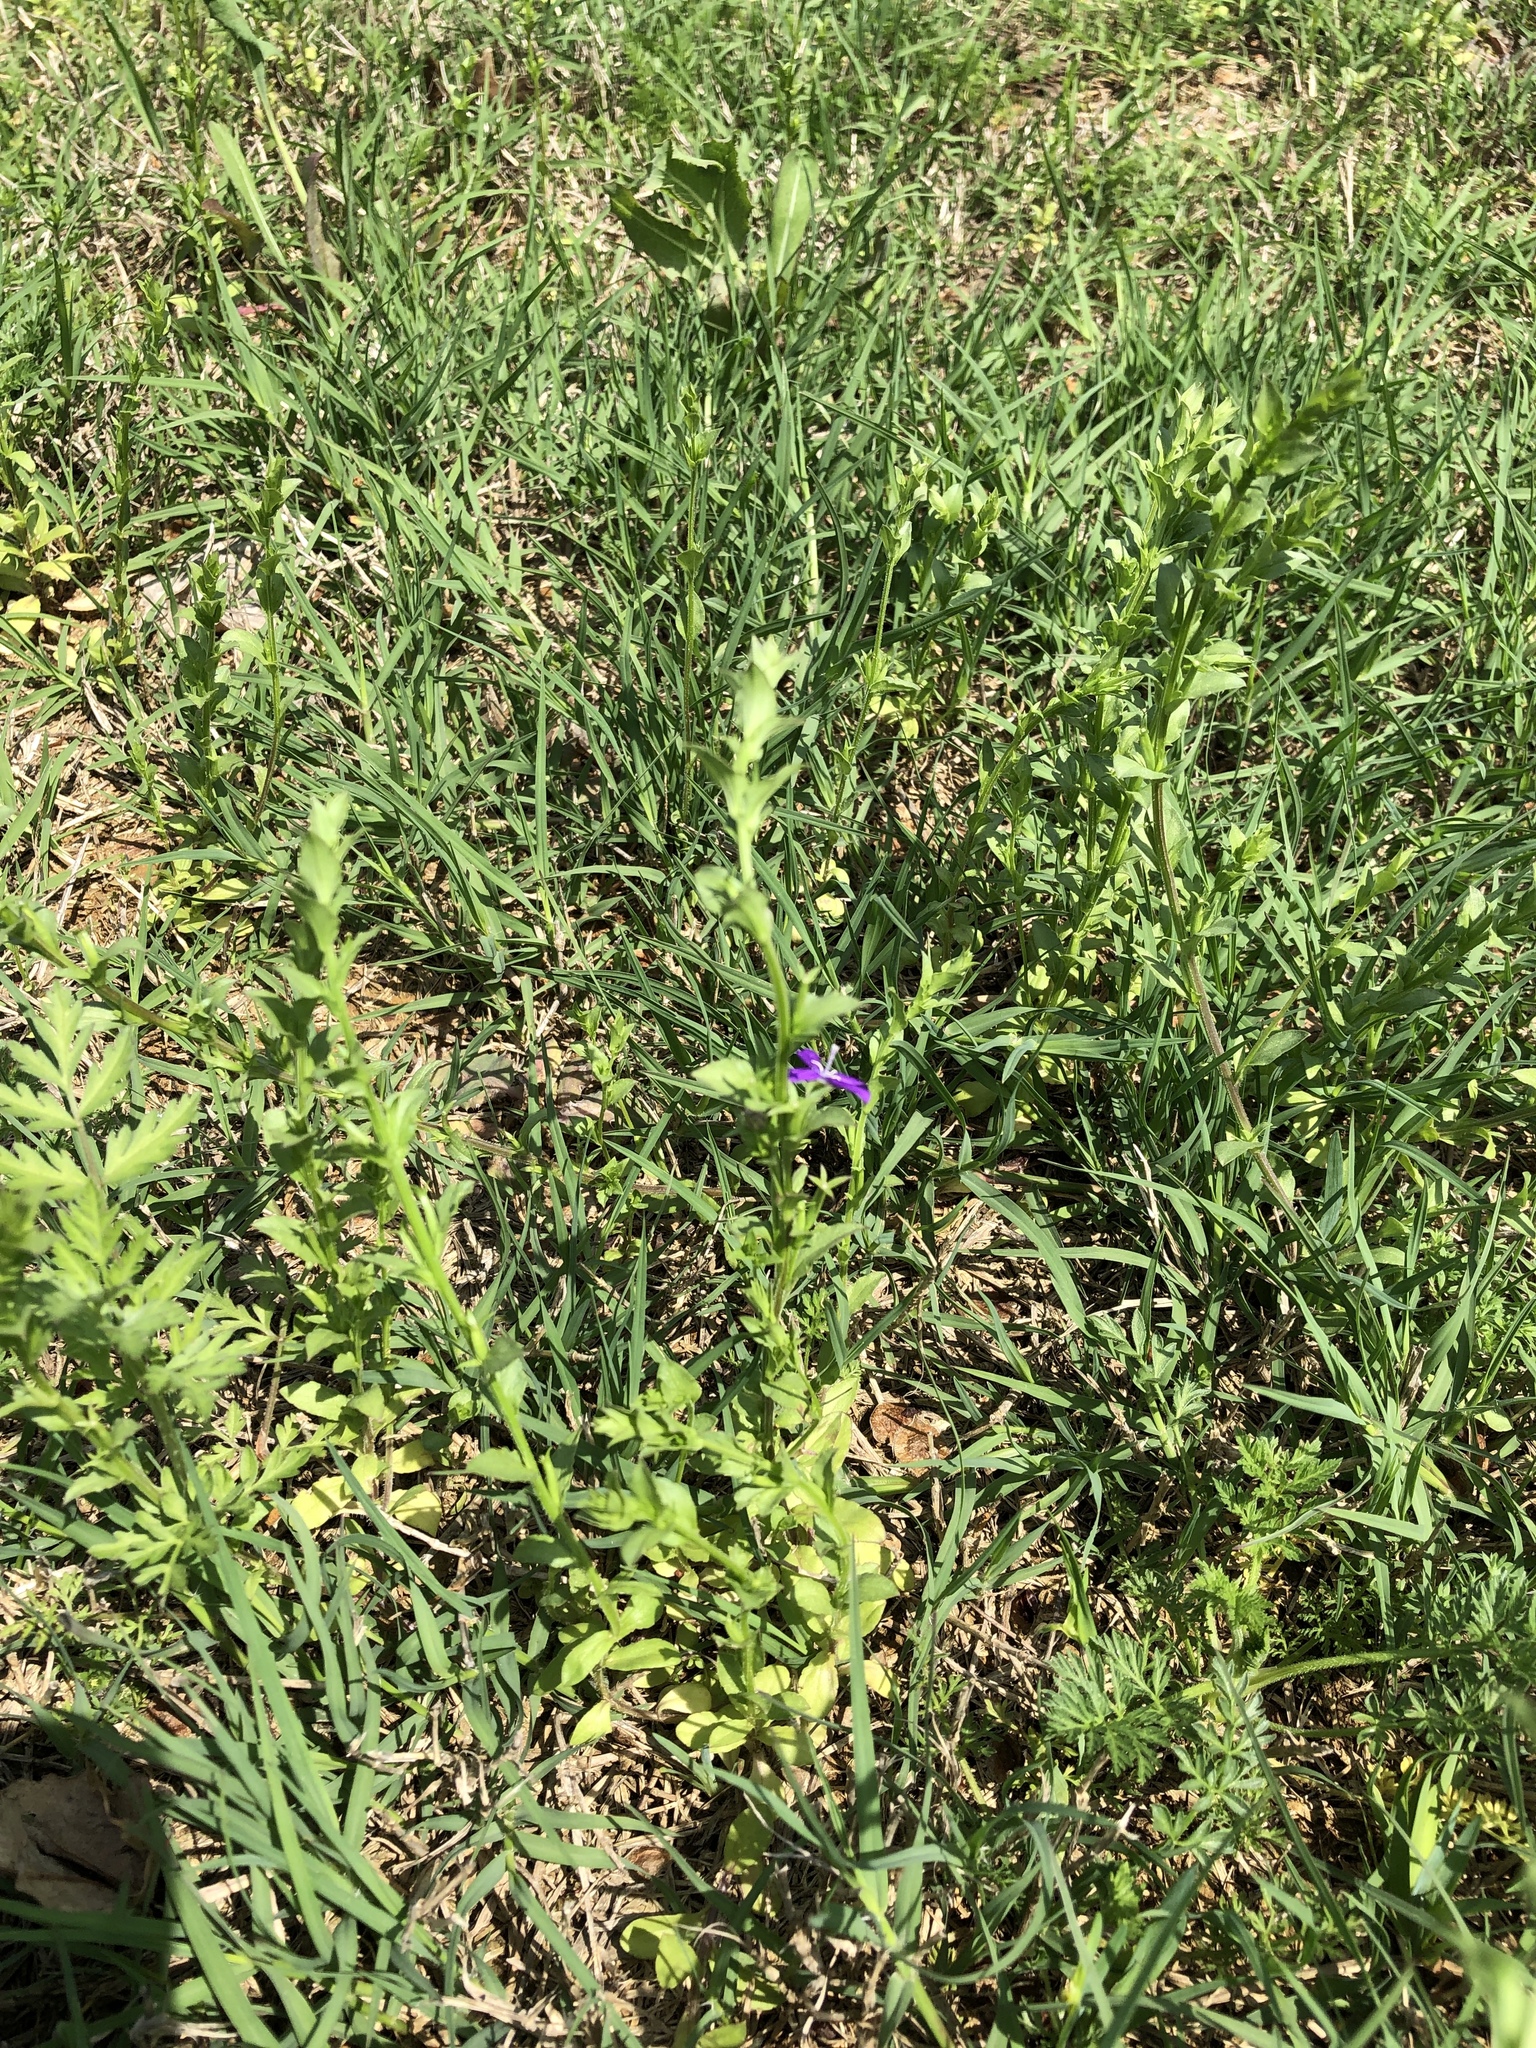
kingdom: Plantae
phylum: Tracheophyta
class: Magnoliopsida
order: Asterales
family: Campanulaceae
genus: Triodanis
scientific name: Triodanis biflora
